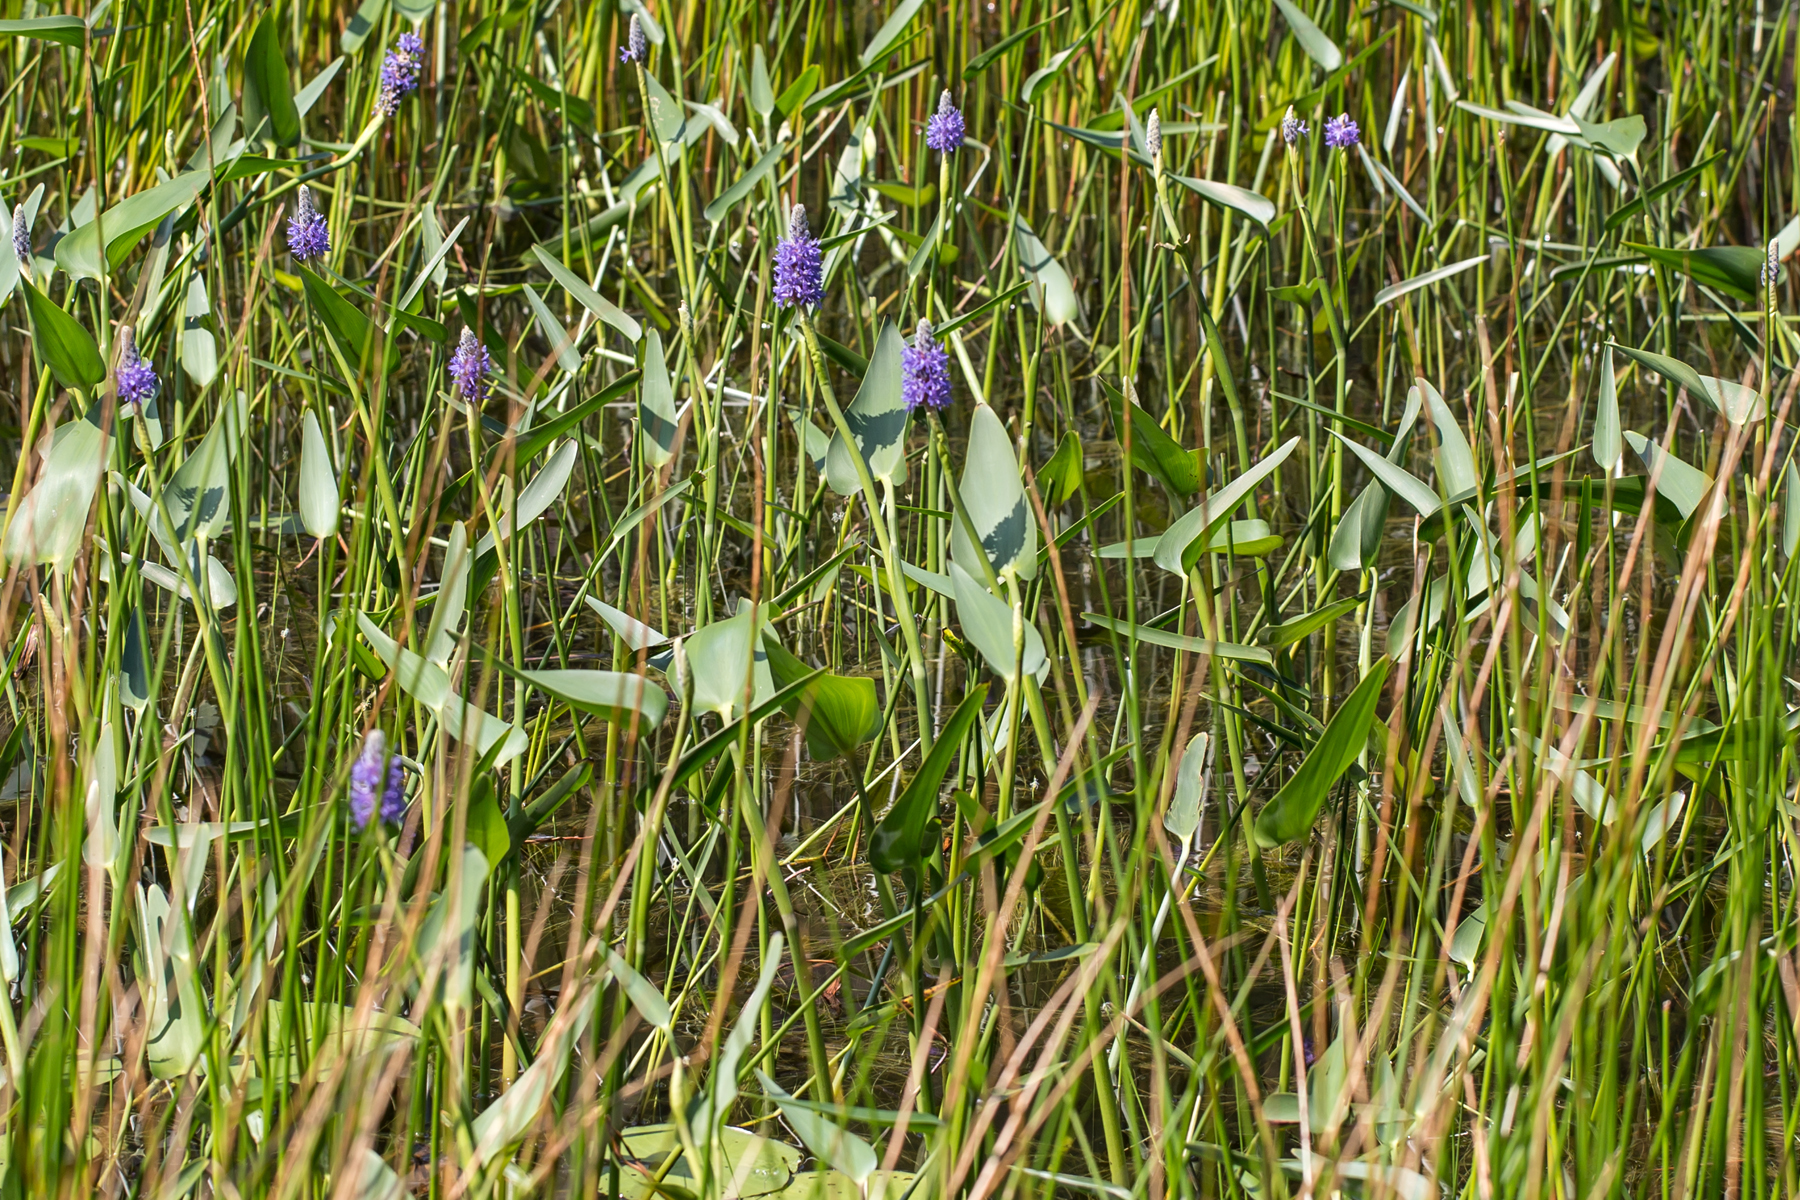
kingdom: Plantae
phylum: Tracheophyta
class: Liliopsida
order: Commelinales
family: Pontederiaceae
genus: Pontederia
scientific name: Pontederia cordata
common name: Pickerelweed
